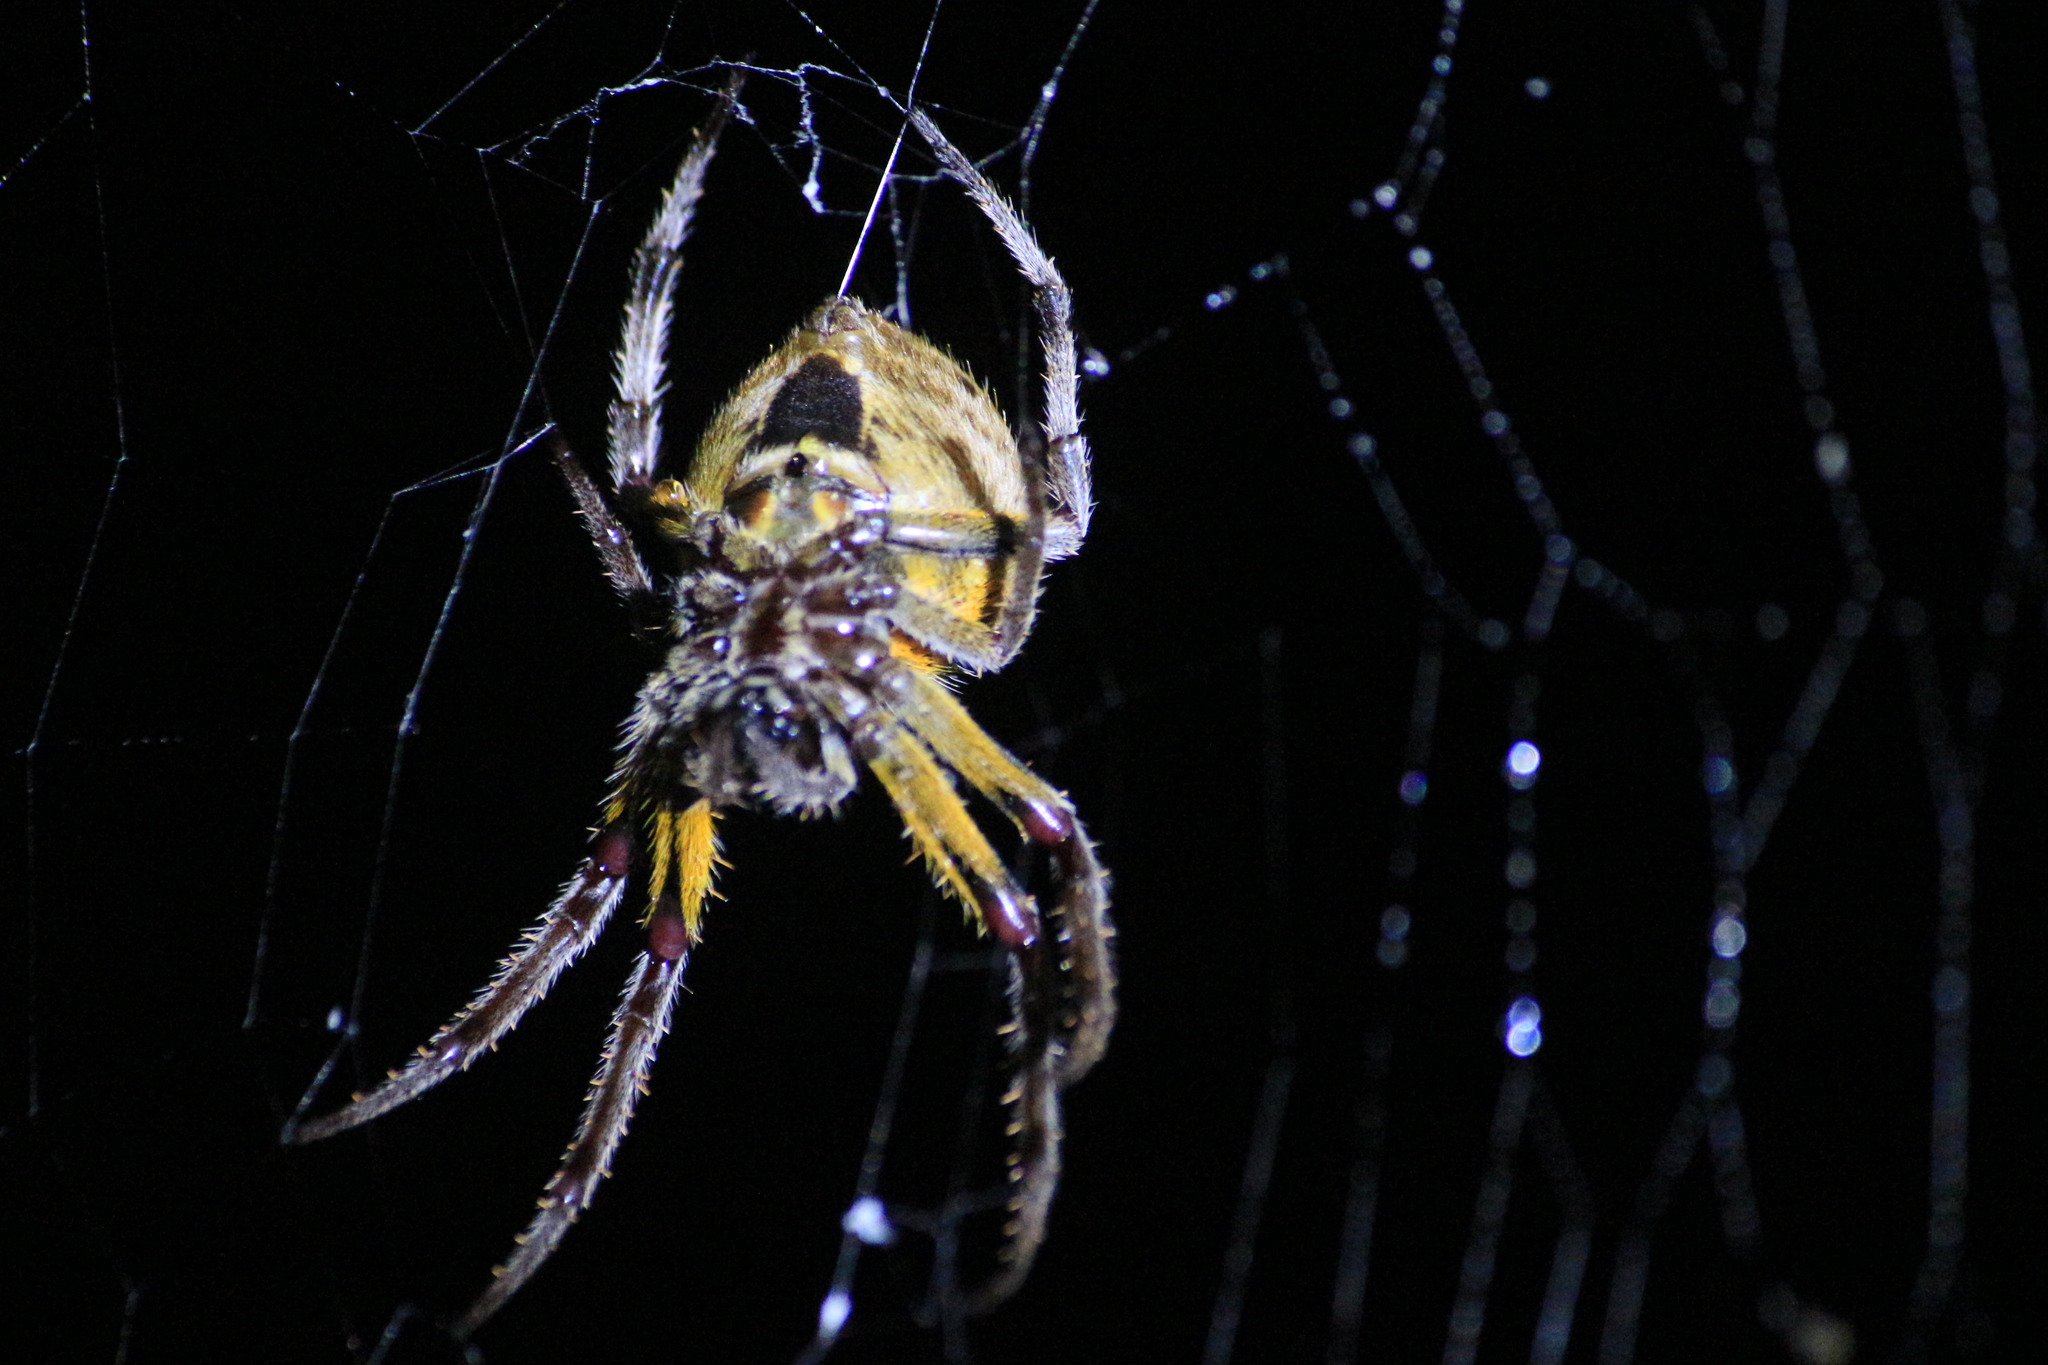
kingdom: Animalia
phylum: Arthropoda
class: Arachnida
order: Araneae
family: Araneidae
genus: Eriophora
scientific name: Eriophora ravilla
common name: Orb weavers
